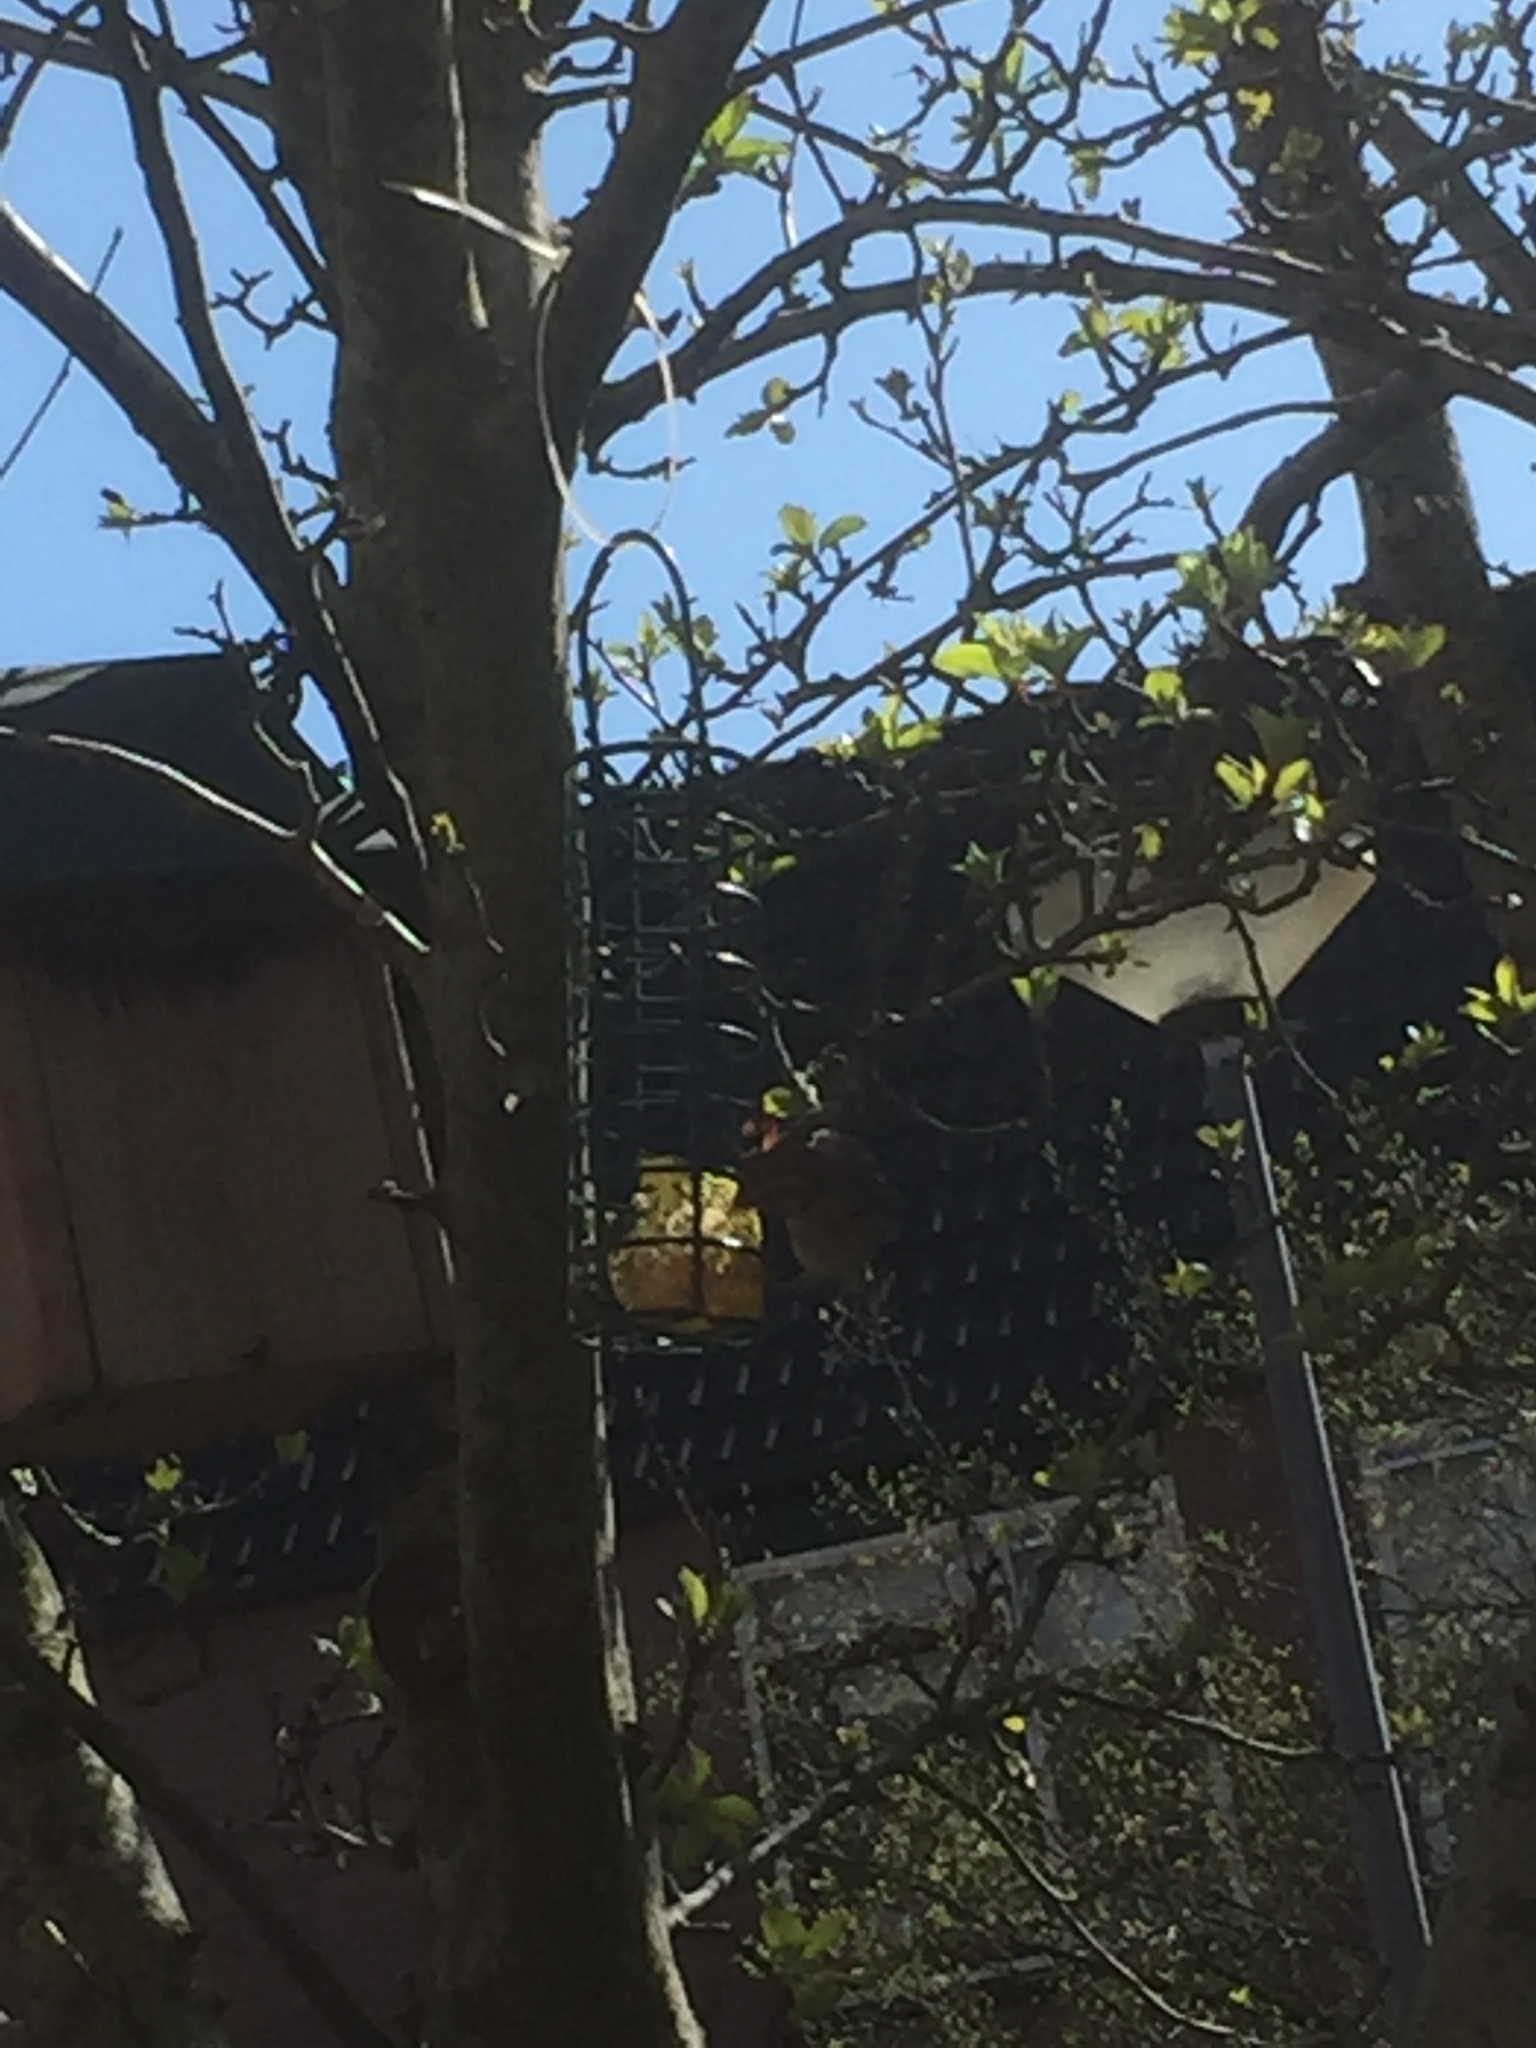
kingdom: Animalia
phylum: Chordata
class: Aves
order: Passeriformes
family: Passeridae
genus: Passer
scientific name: Passer domesticus
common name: House sparrow
